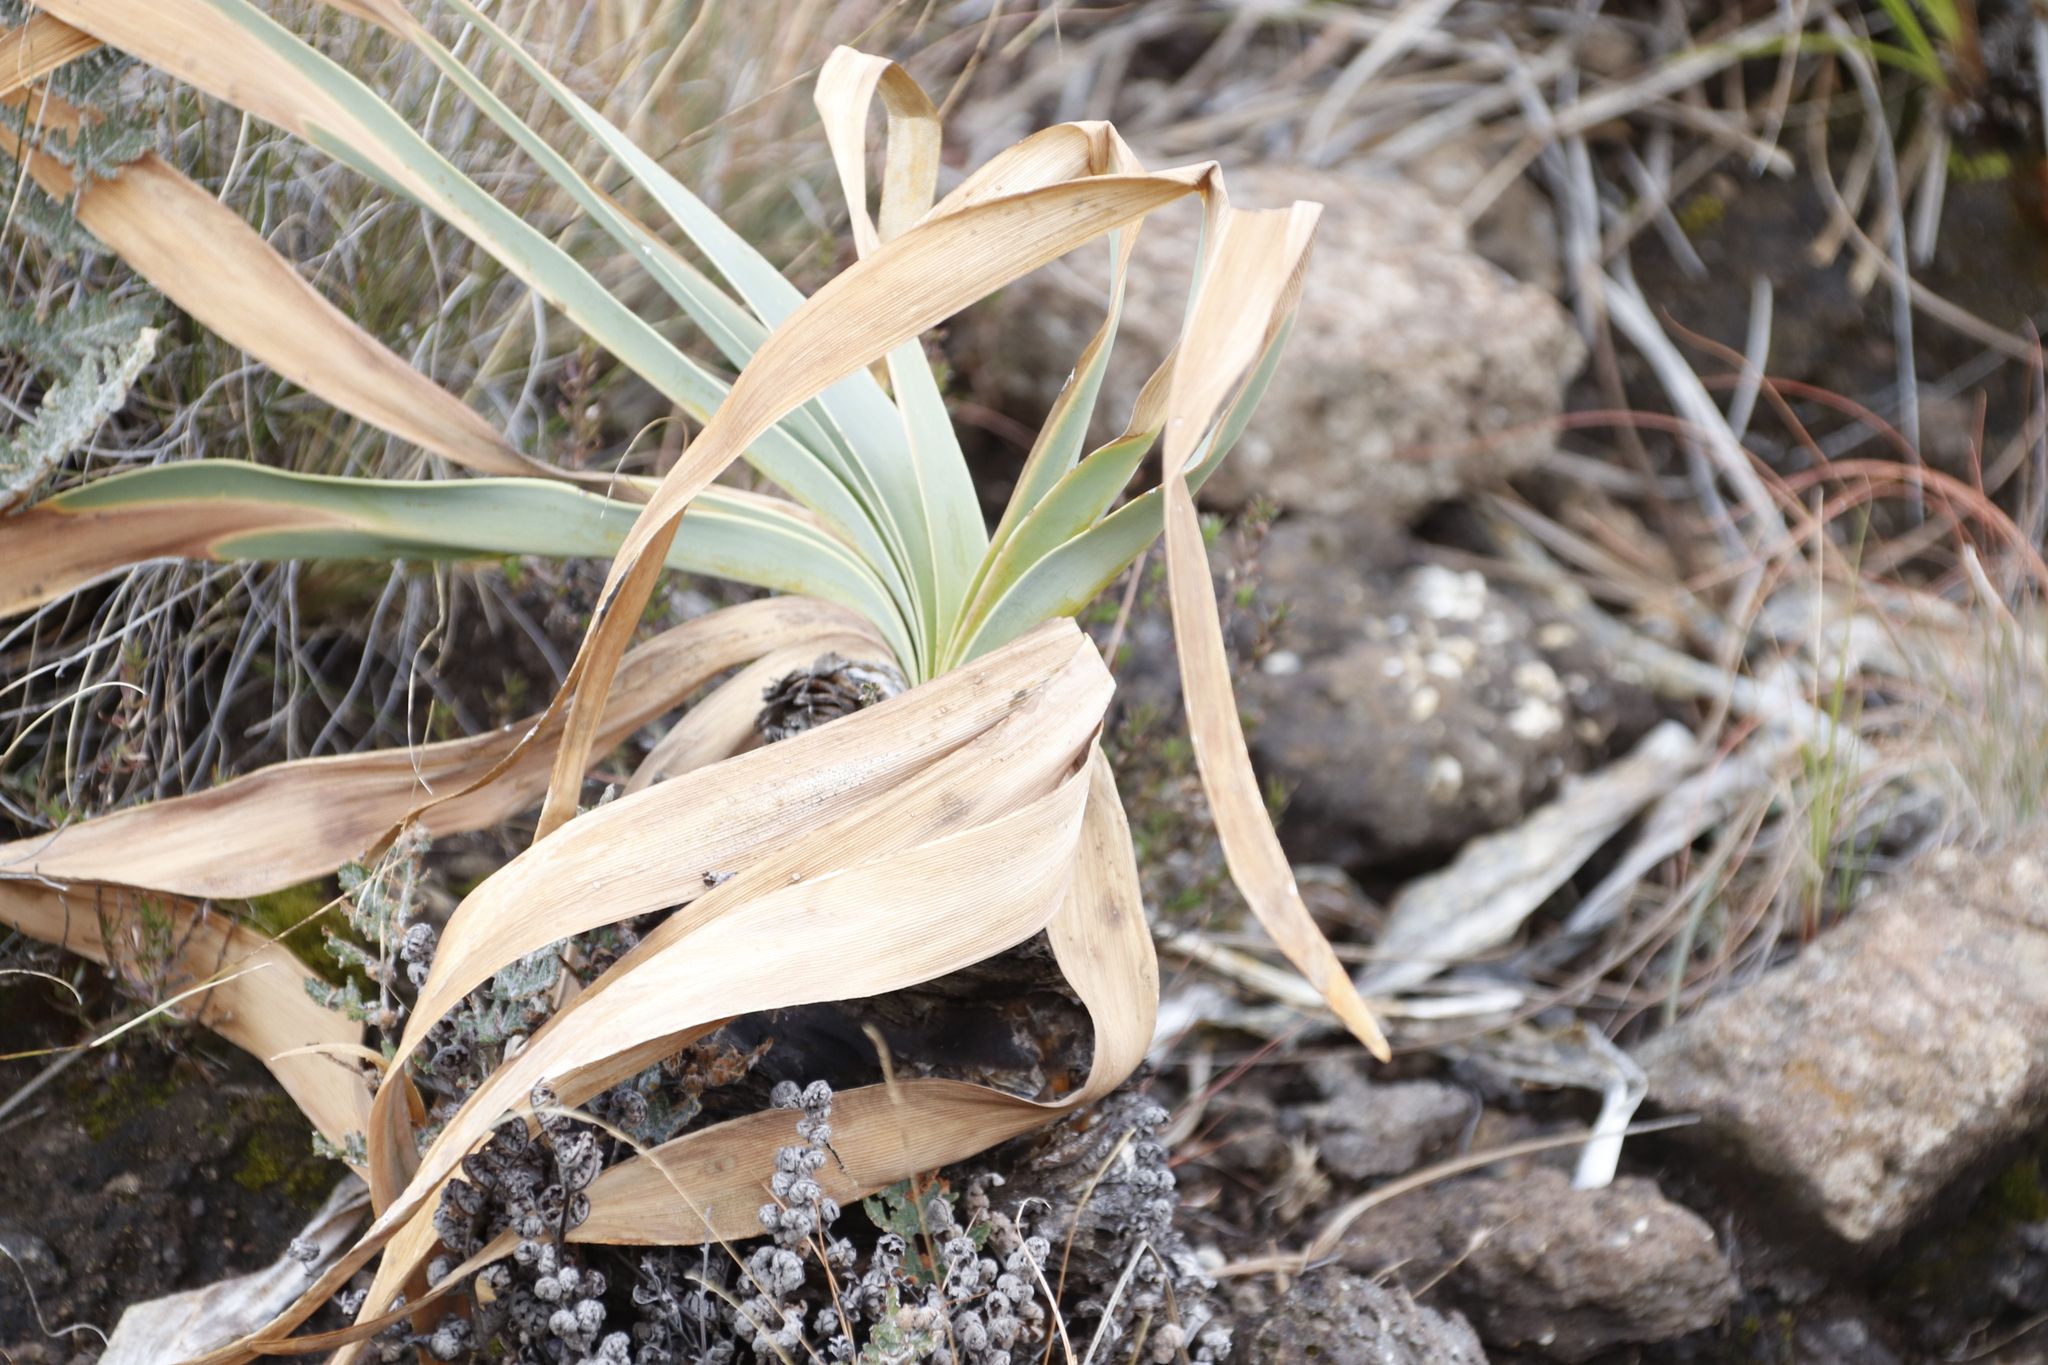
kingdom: Plantae
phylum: Tracheophyta
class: Liliopsida
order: Asparagales
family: Amaryllidaceae
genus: Boophone
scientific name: Boophone disticha
